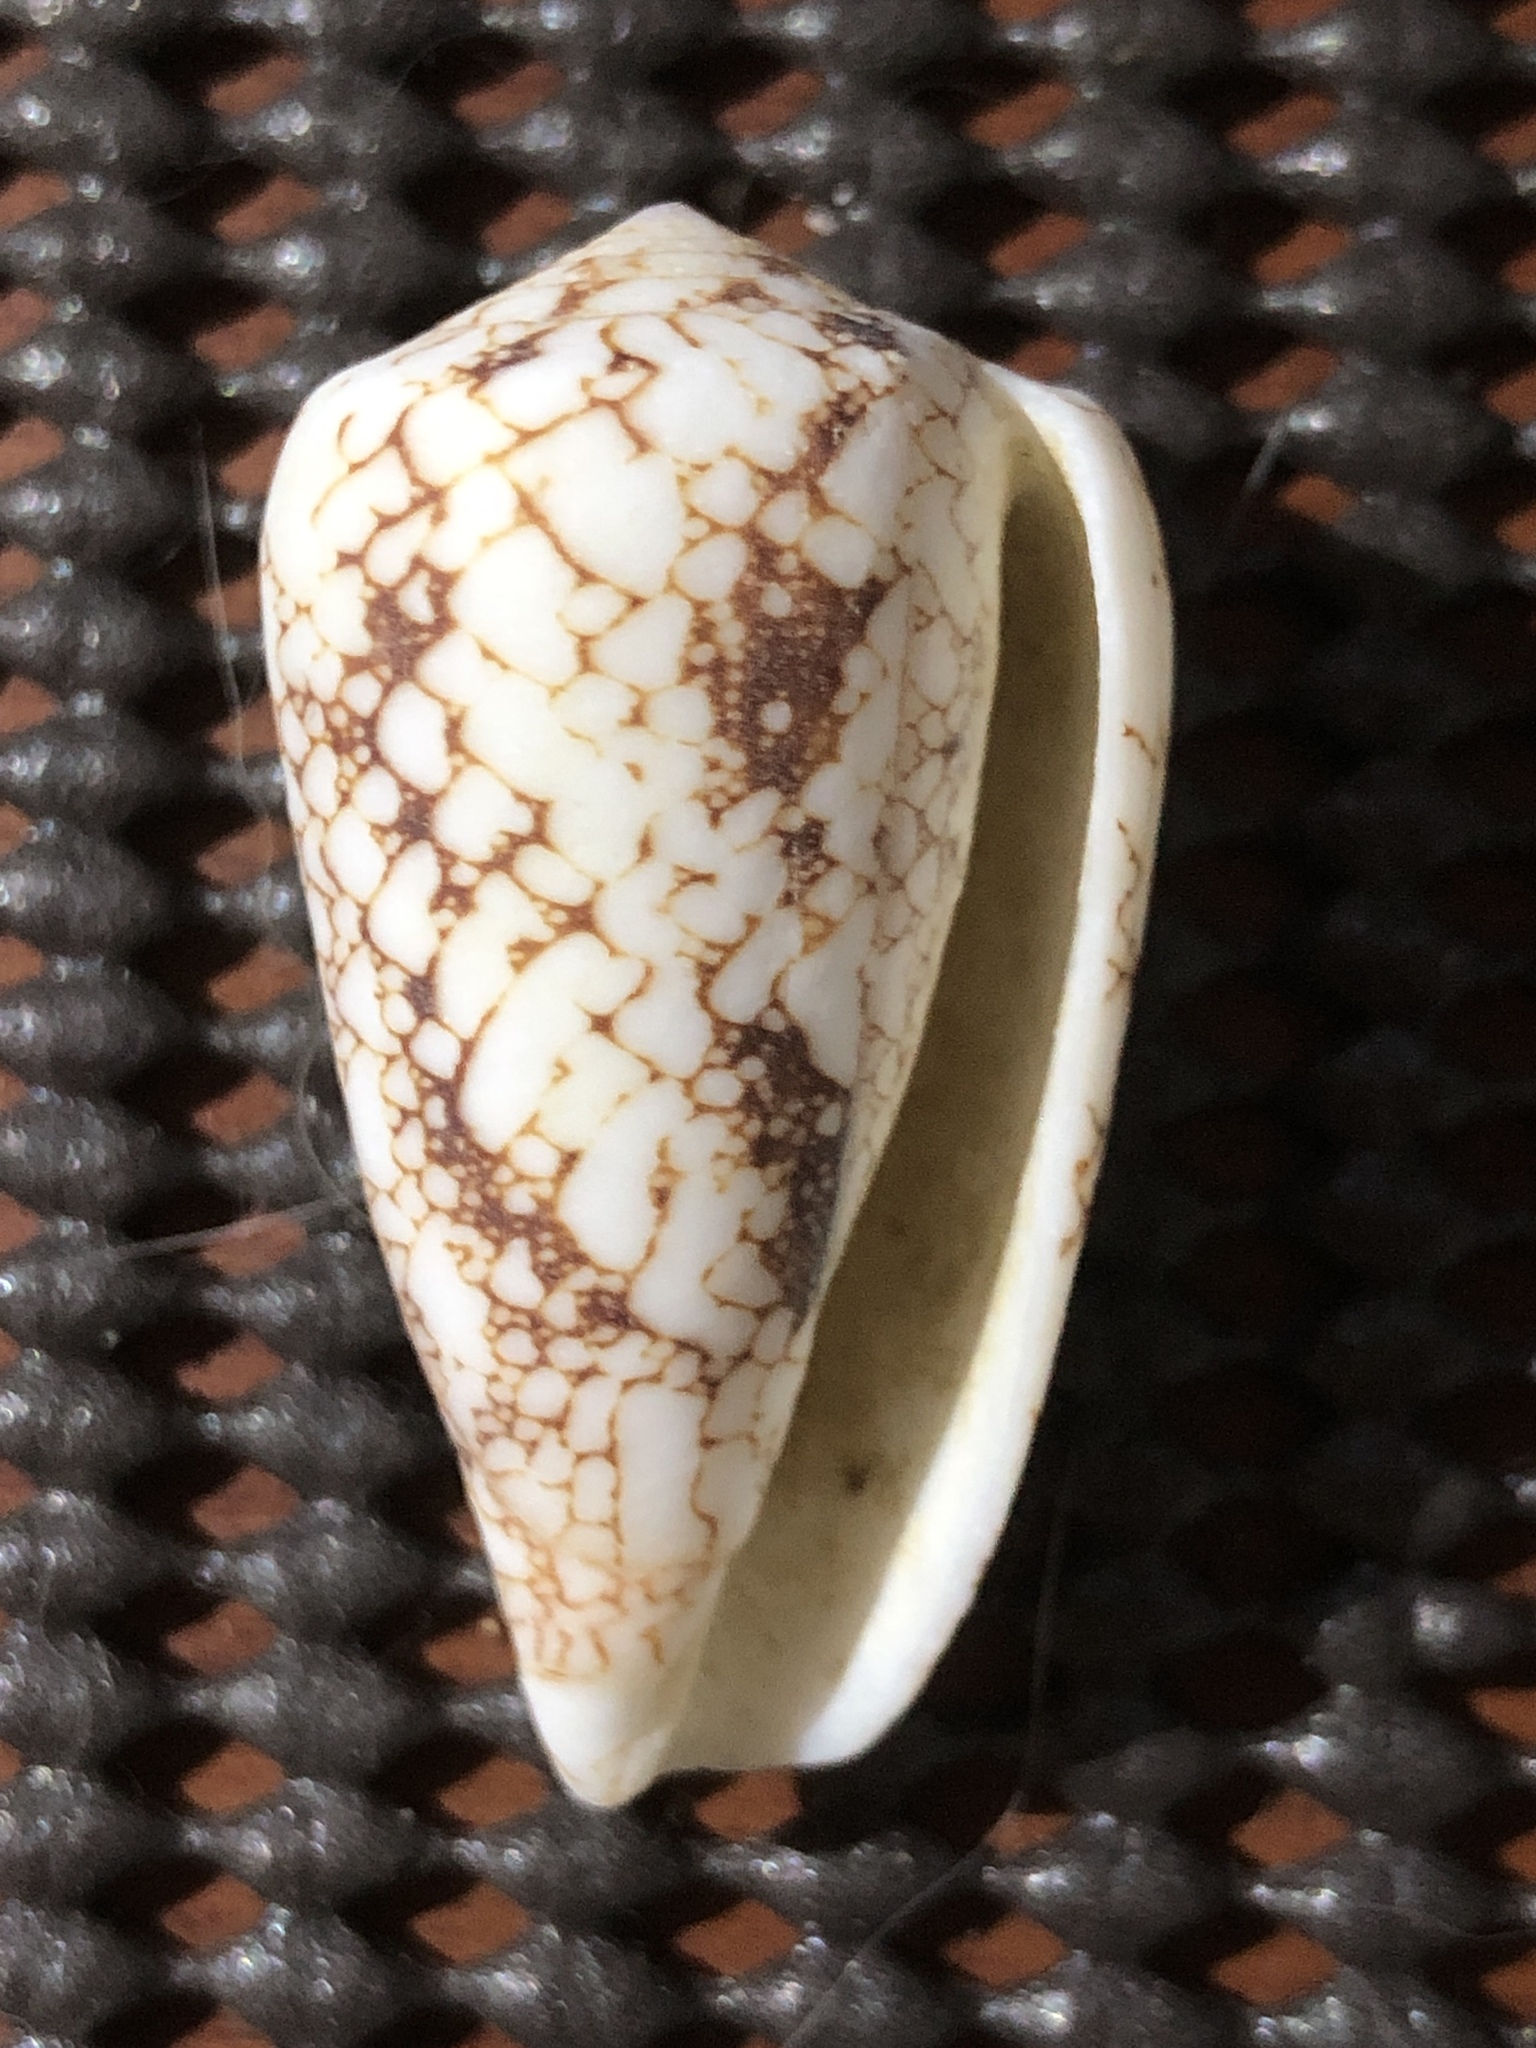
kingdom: Animalia
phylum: Mollusca
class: Gastropoda
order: Neogastropoda
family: Conidae
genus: Conus
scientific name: Conus omaria
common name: Omaria cone
